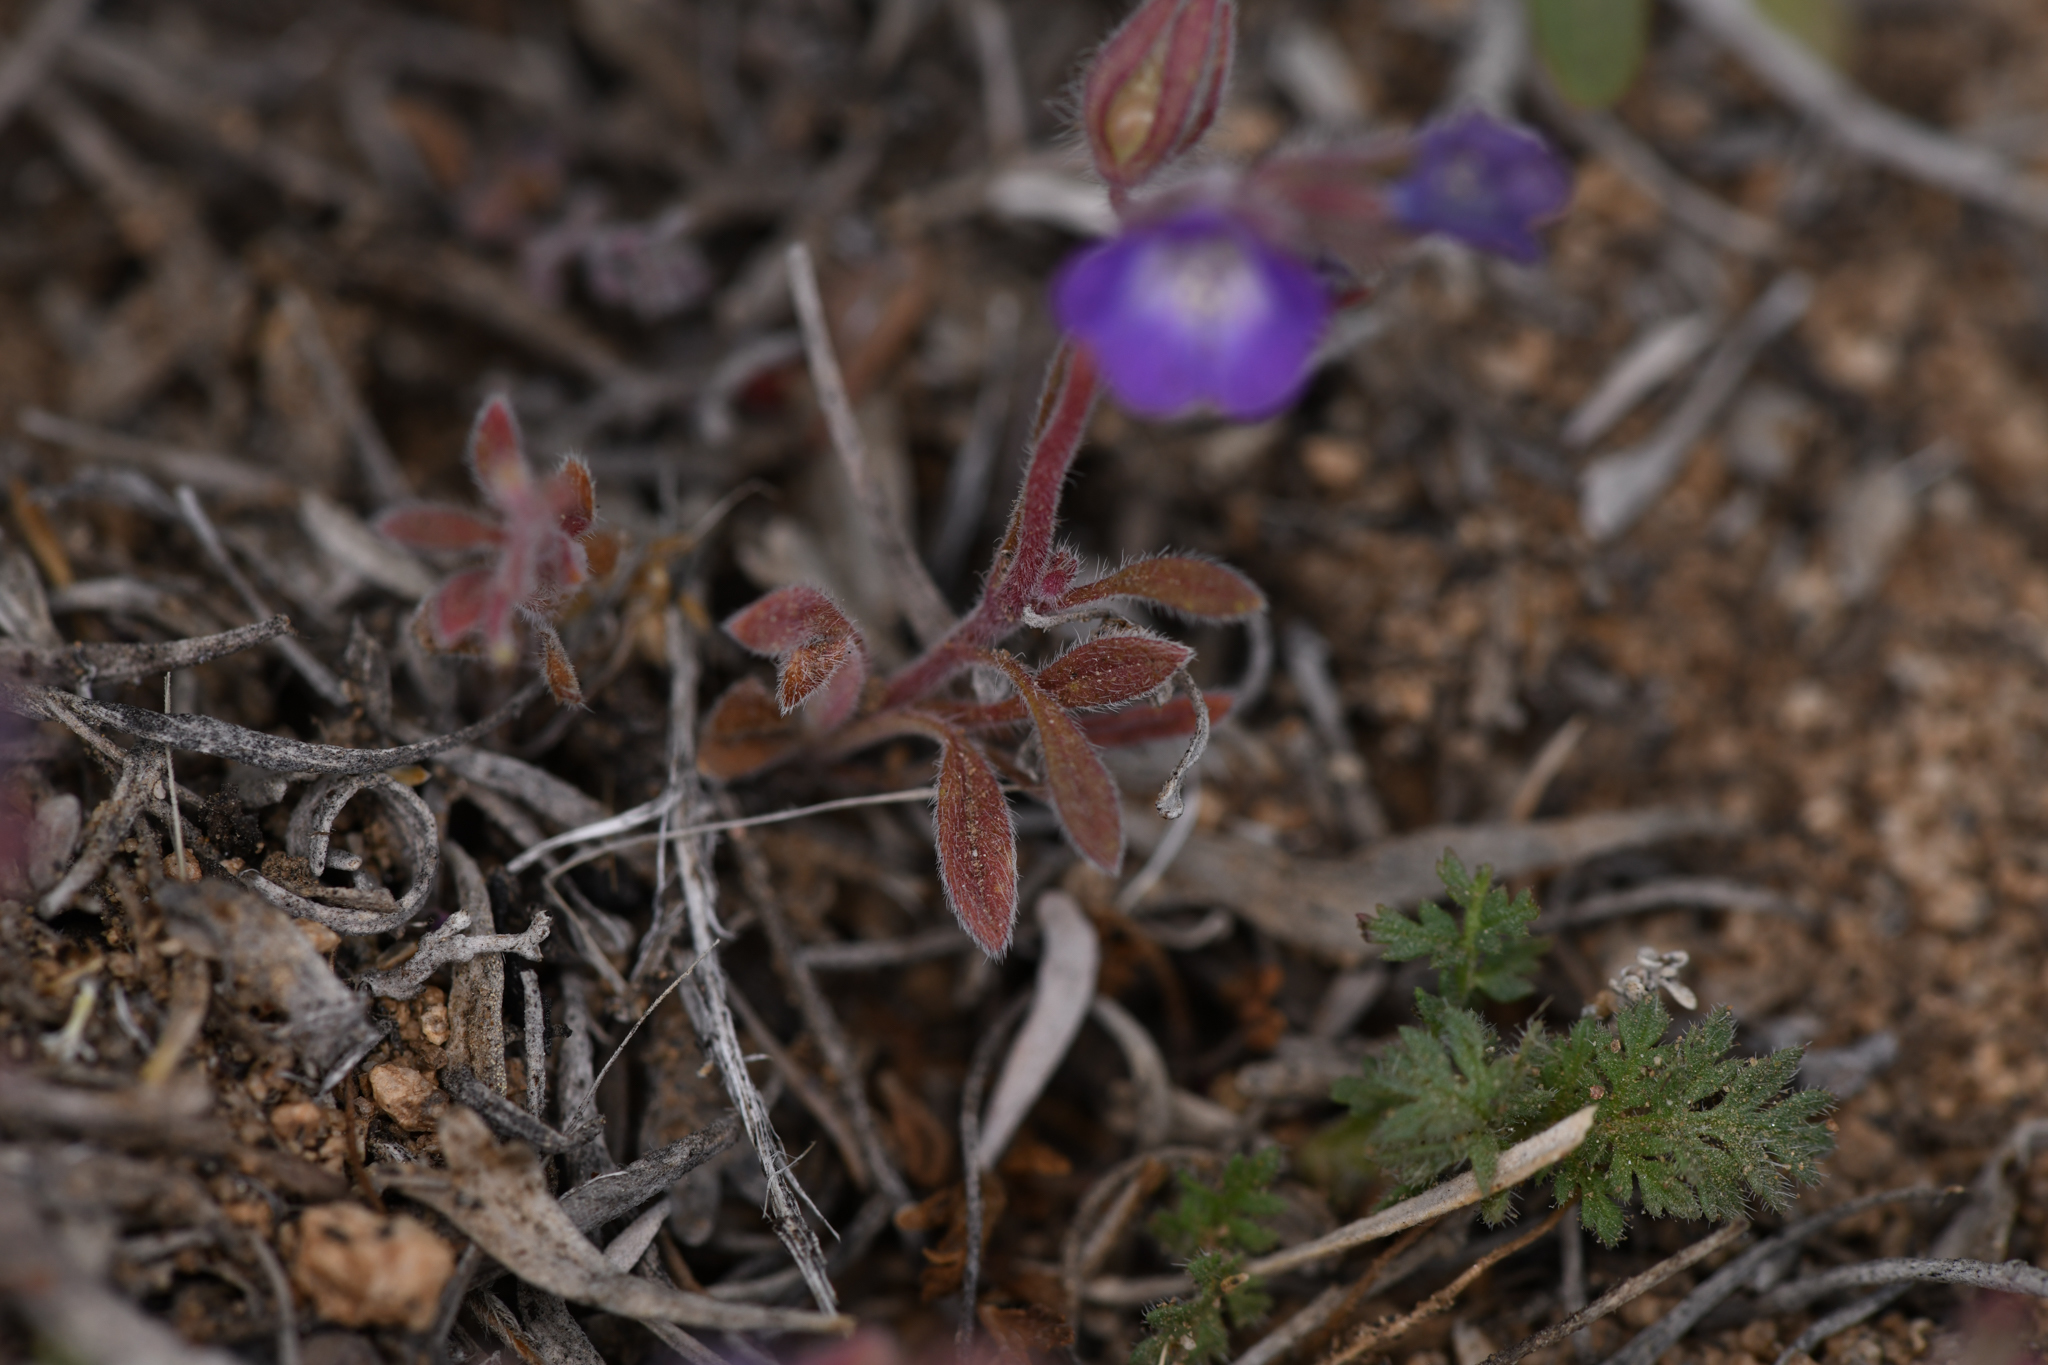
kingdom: Plantae
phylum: Tracheophyta
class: Magnoliopsida
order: Boraginales
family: Hydrophyllaceae
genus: Phacelia
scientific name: Phacelia curvipes
